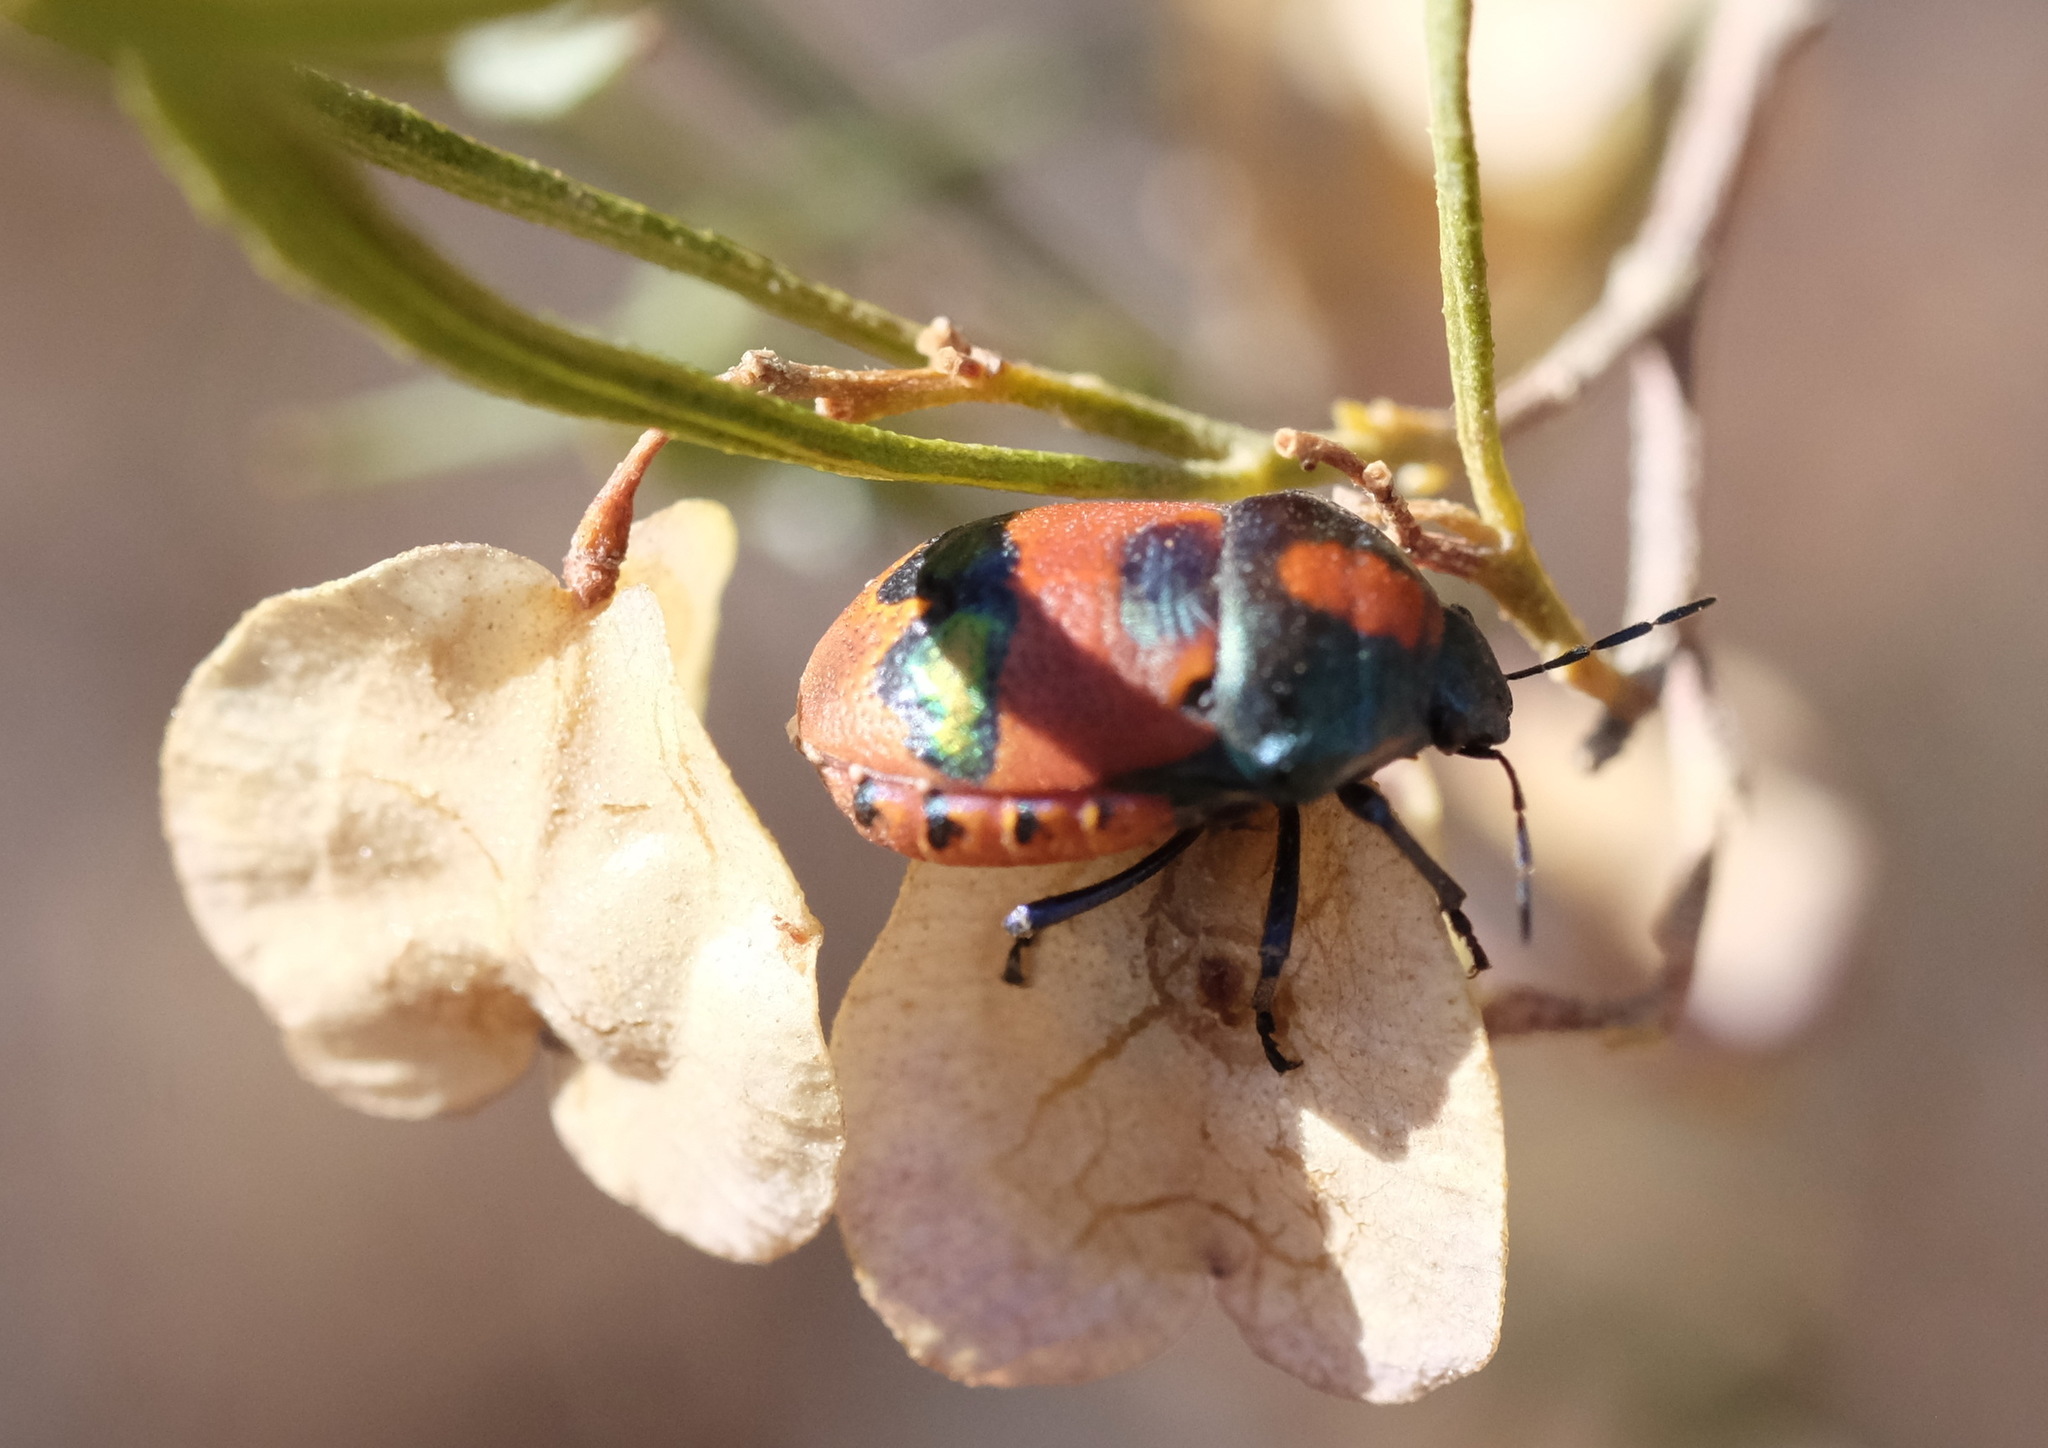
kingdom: Animalia
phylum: Arthropoda
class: Insecta
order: Hemiptera
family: Scutelleridae
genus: Choerocoris
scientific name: Choerocoris paganus
